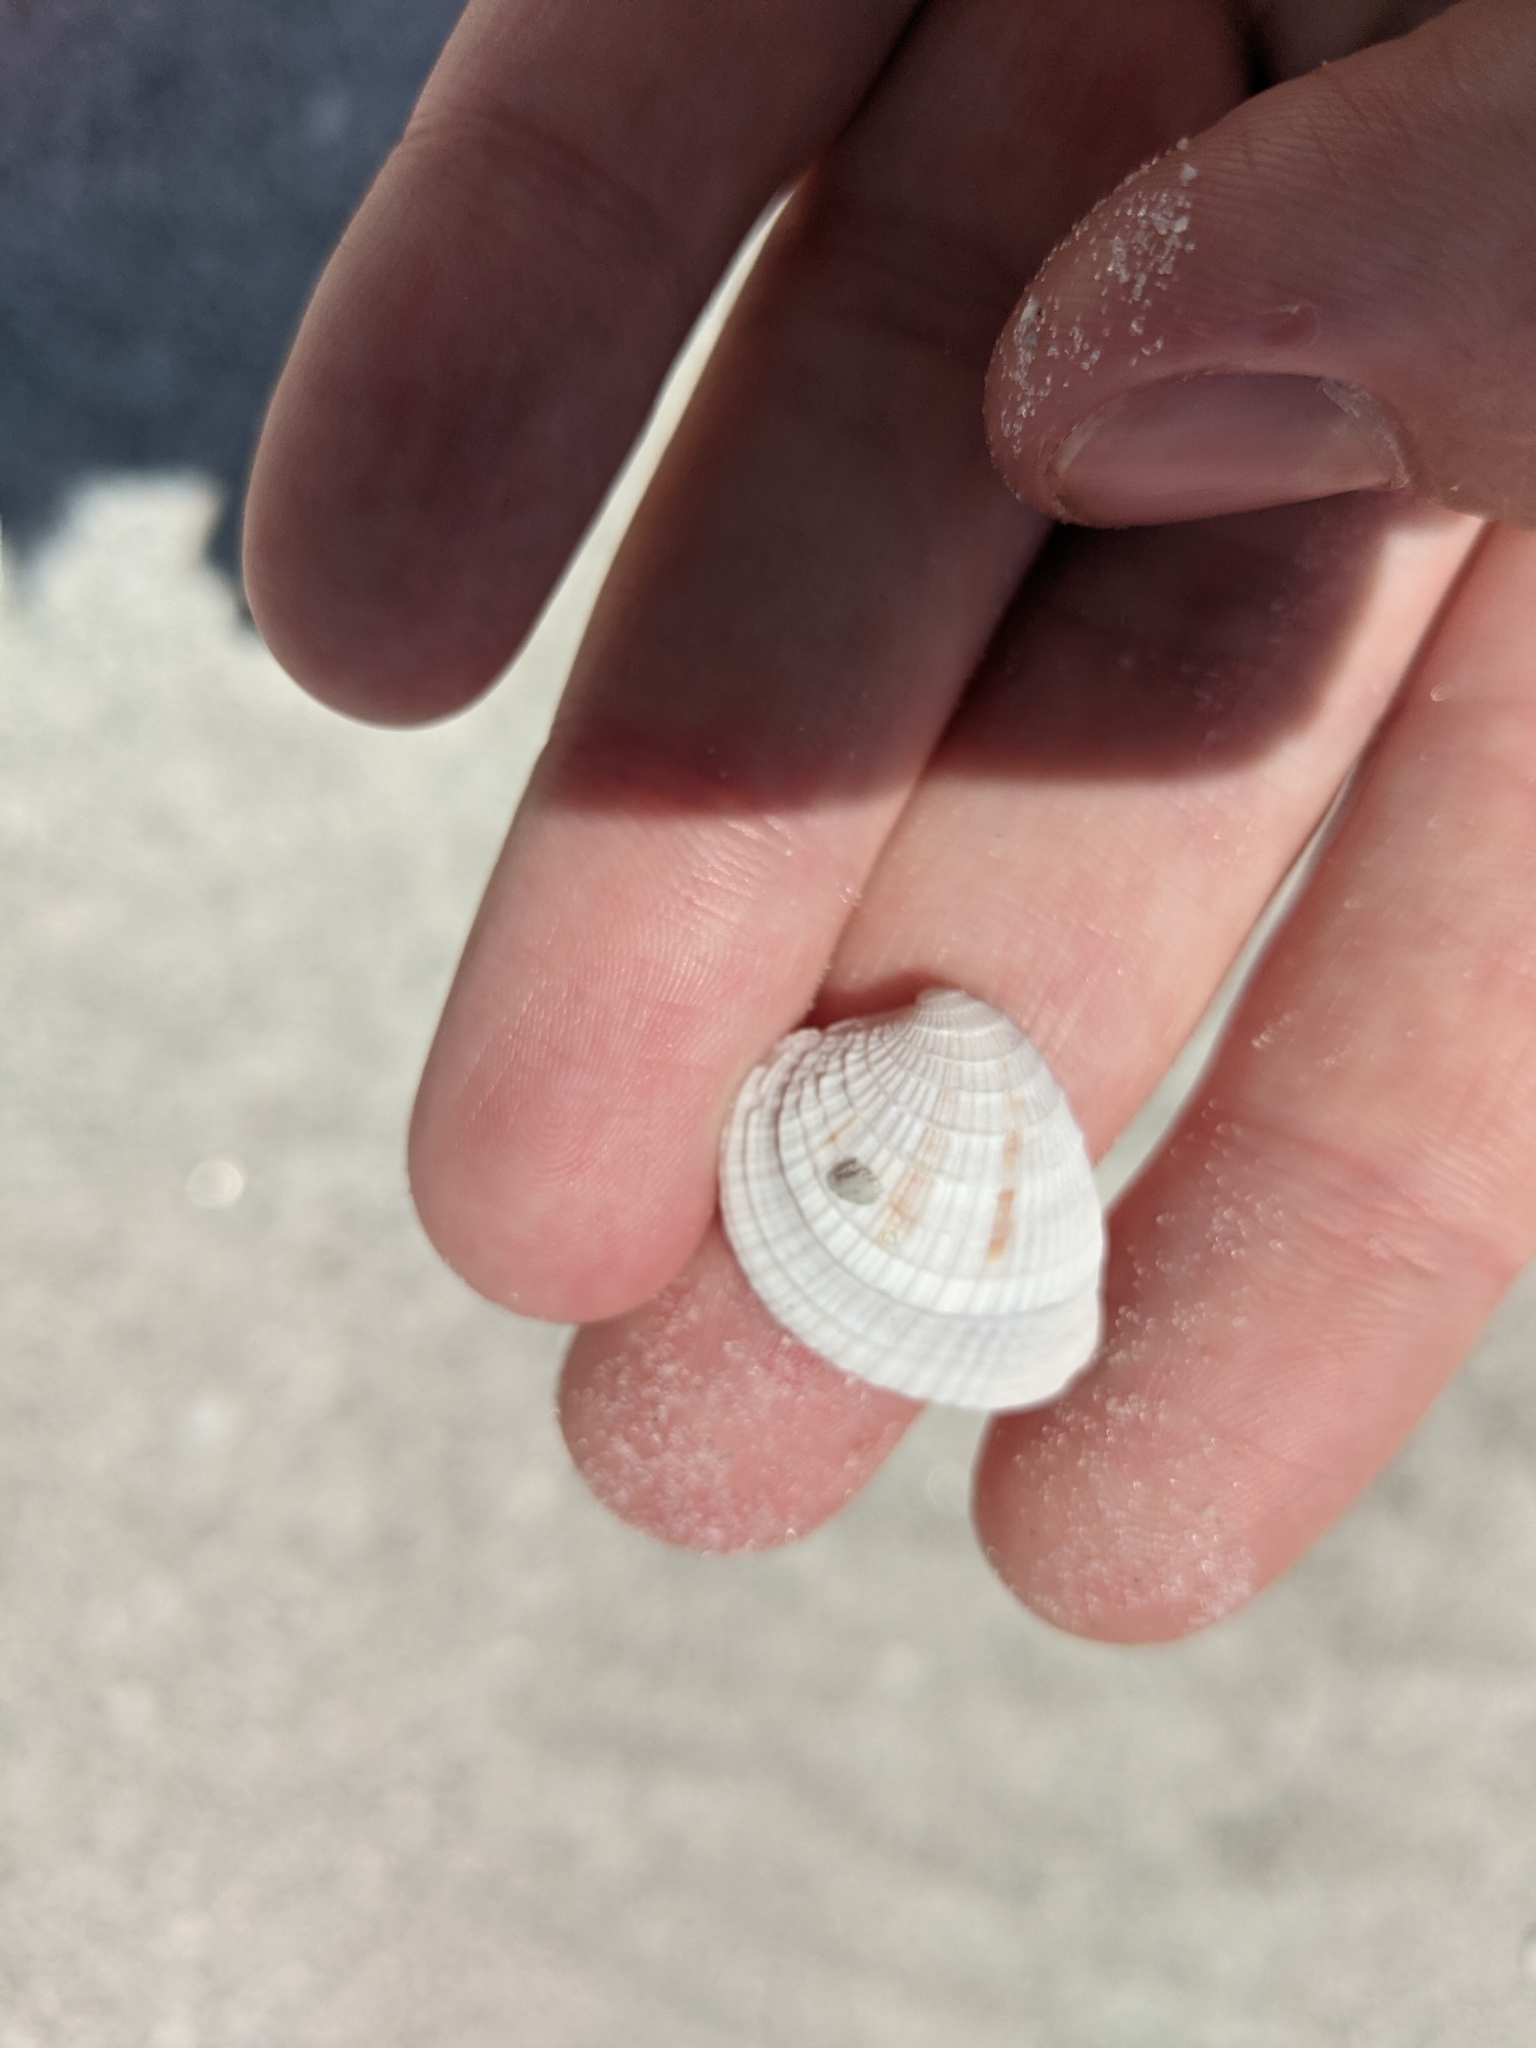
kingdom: Animalia
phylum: Mollusca
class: Bivalvia
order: Venerida
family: Veneridae
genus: Chione
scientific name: Chione elevata
